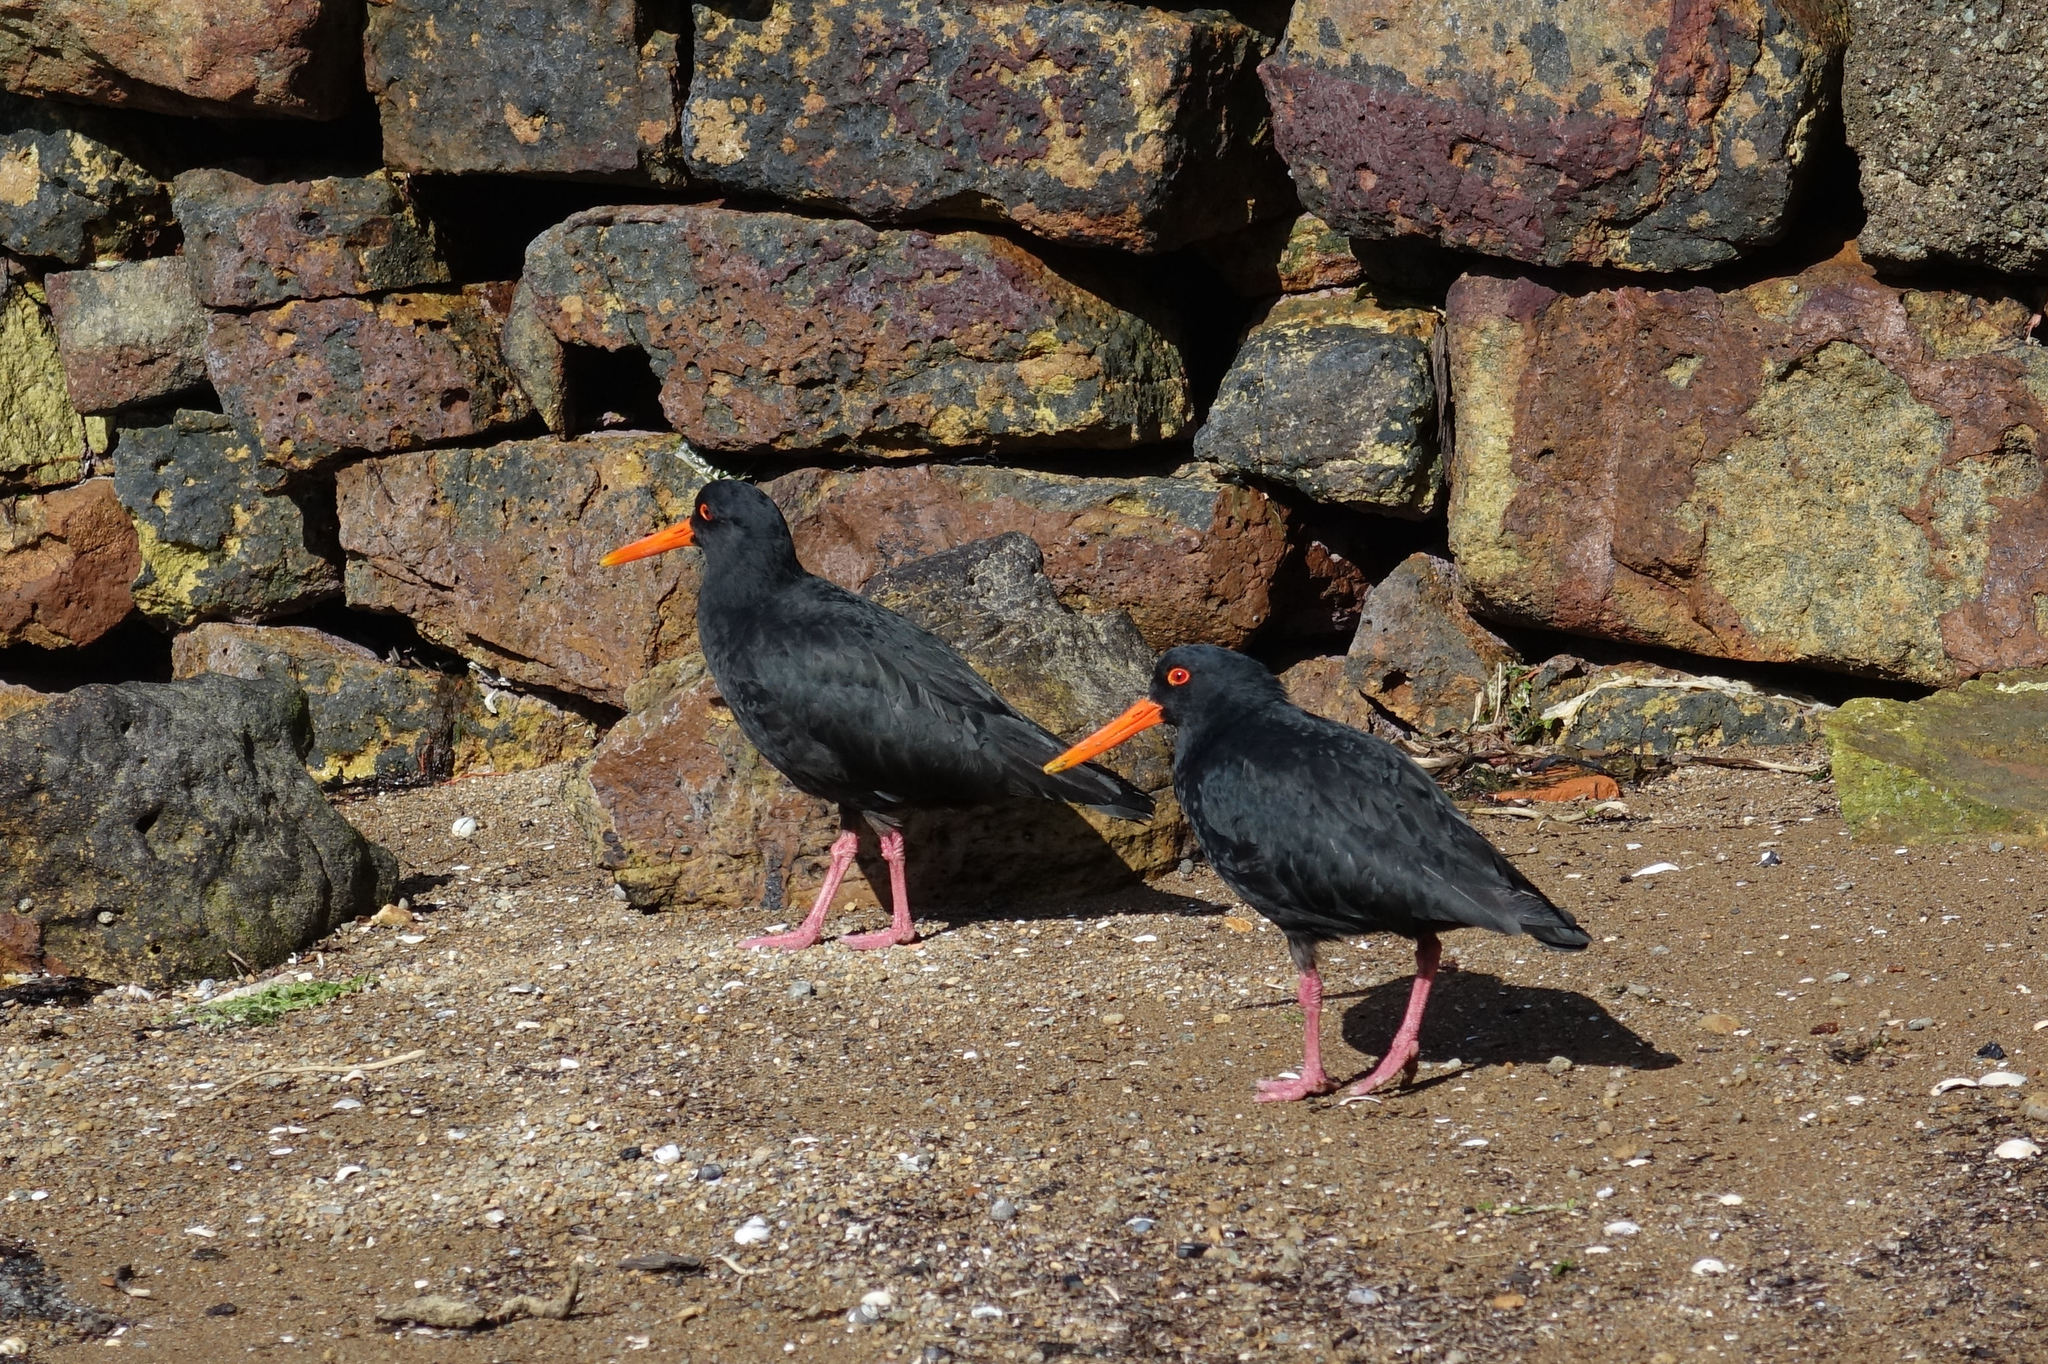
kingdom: Animalia
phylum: Chordata
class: Aves
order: Charadriiformes
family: Haematopodidae
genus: Haematopus
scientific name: Haematopus unicolor
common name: Variable oystercatcher
